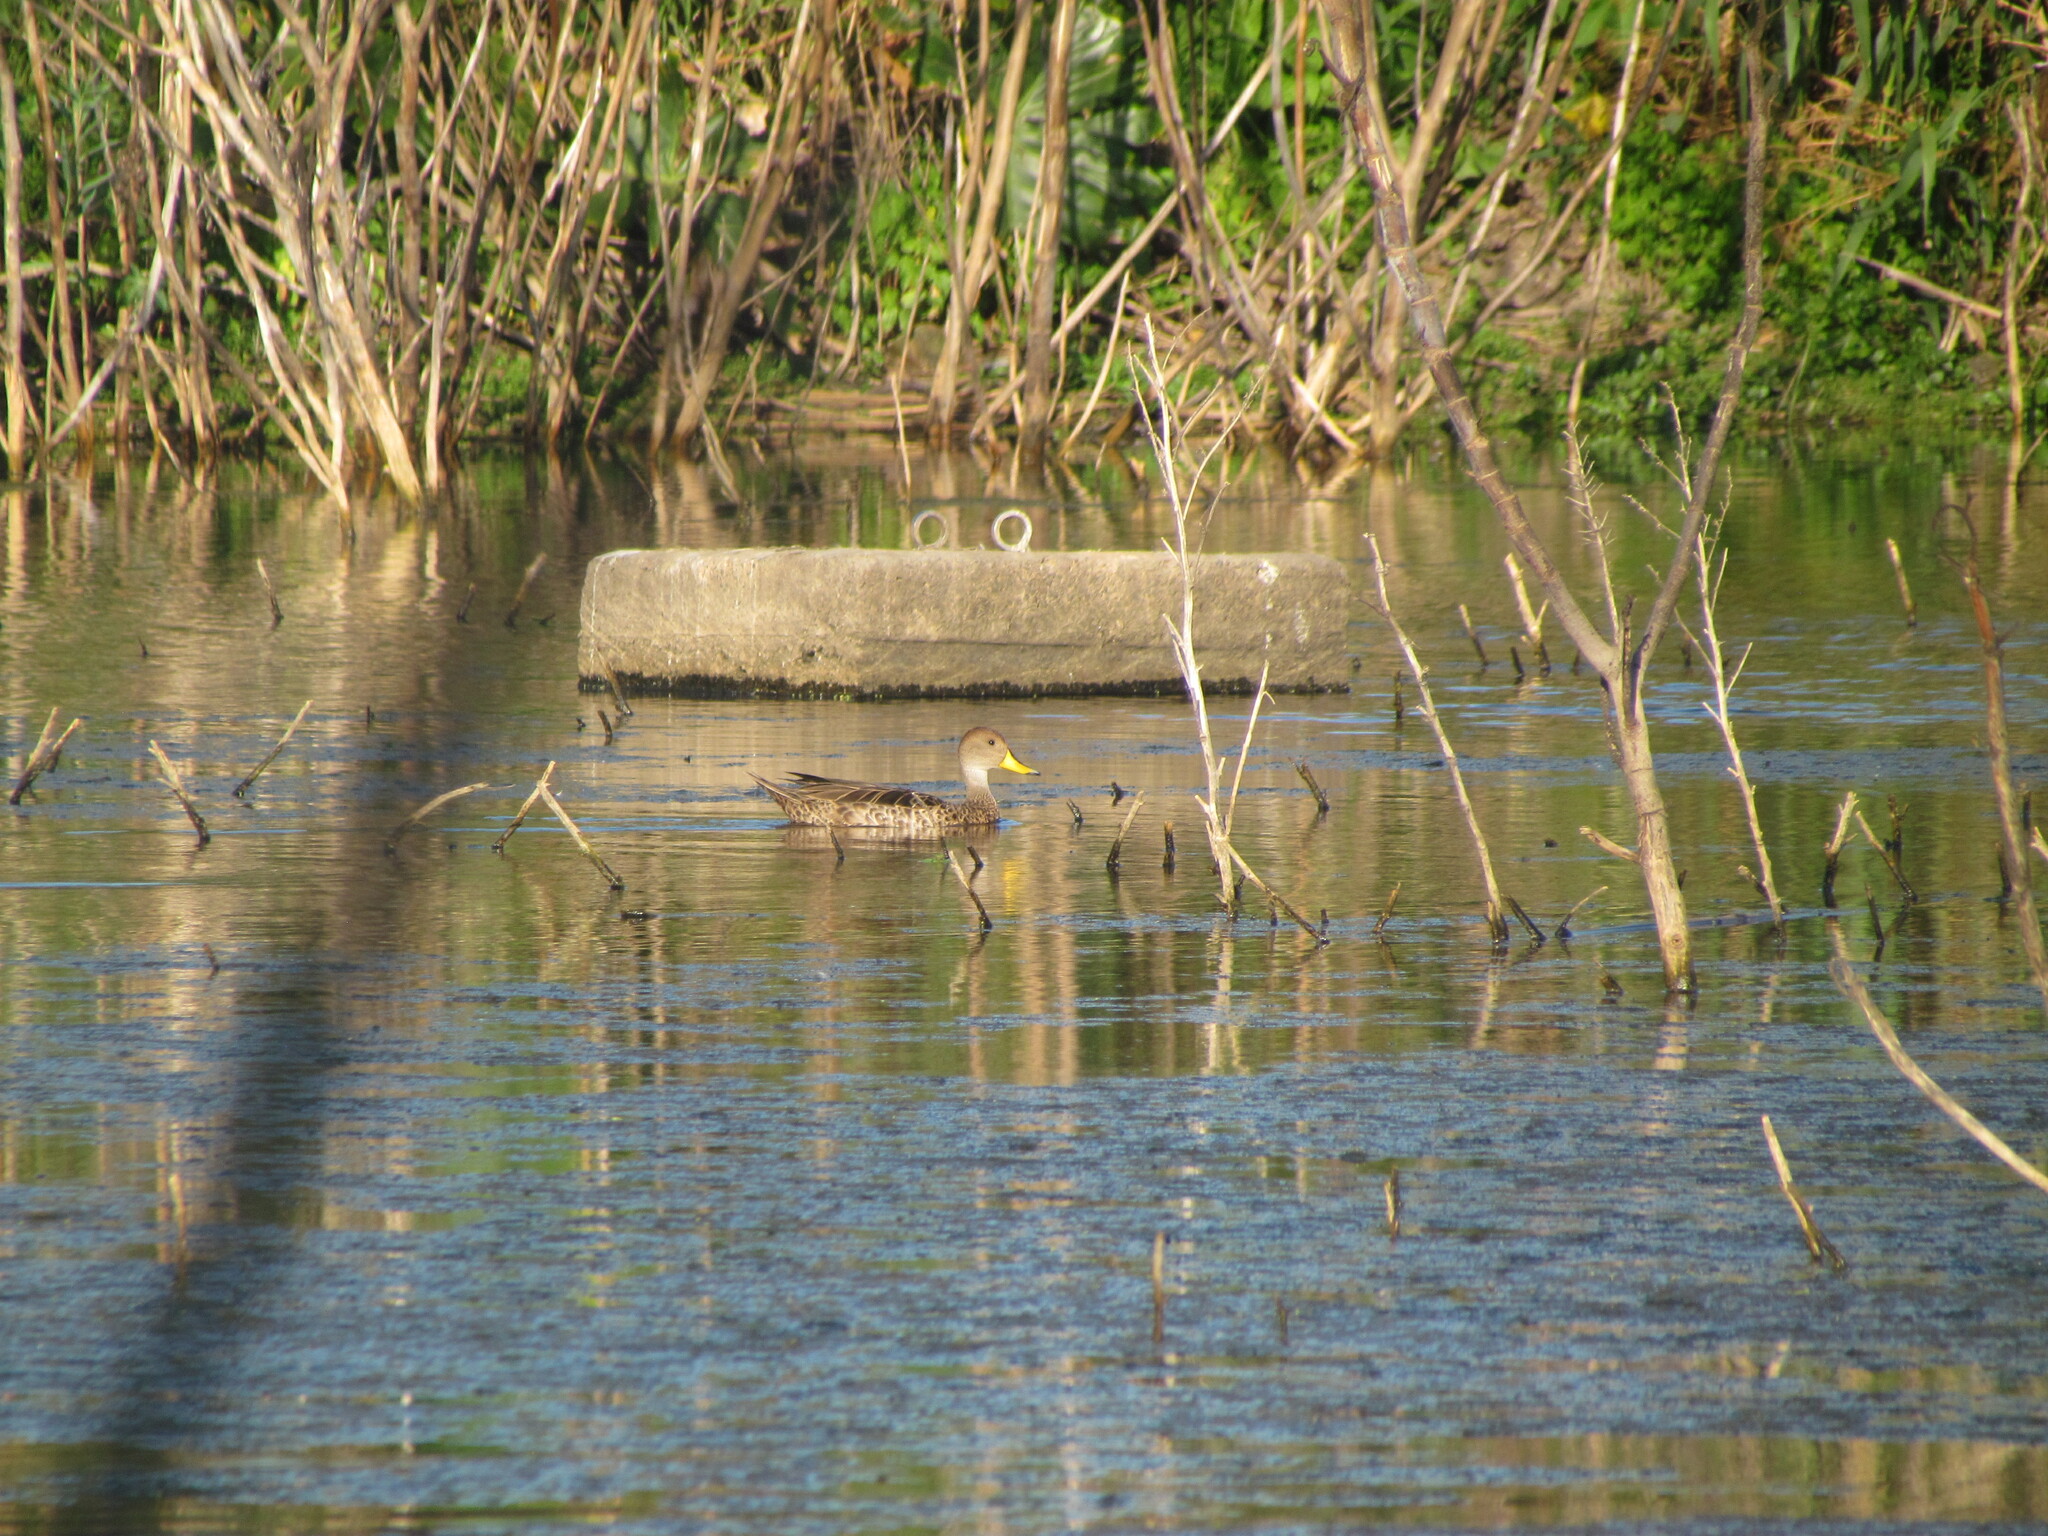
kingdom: Animalia
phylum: Chordata
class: Aves
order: Anseriformes
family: Anatidae
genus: Anas
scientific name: Anas georgica
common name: Yellow-billed pintail
